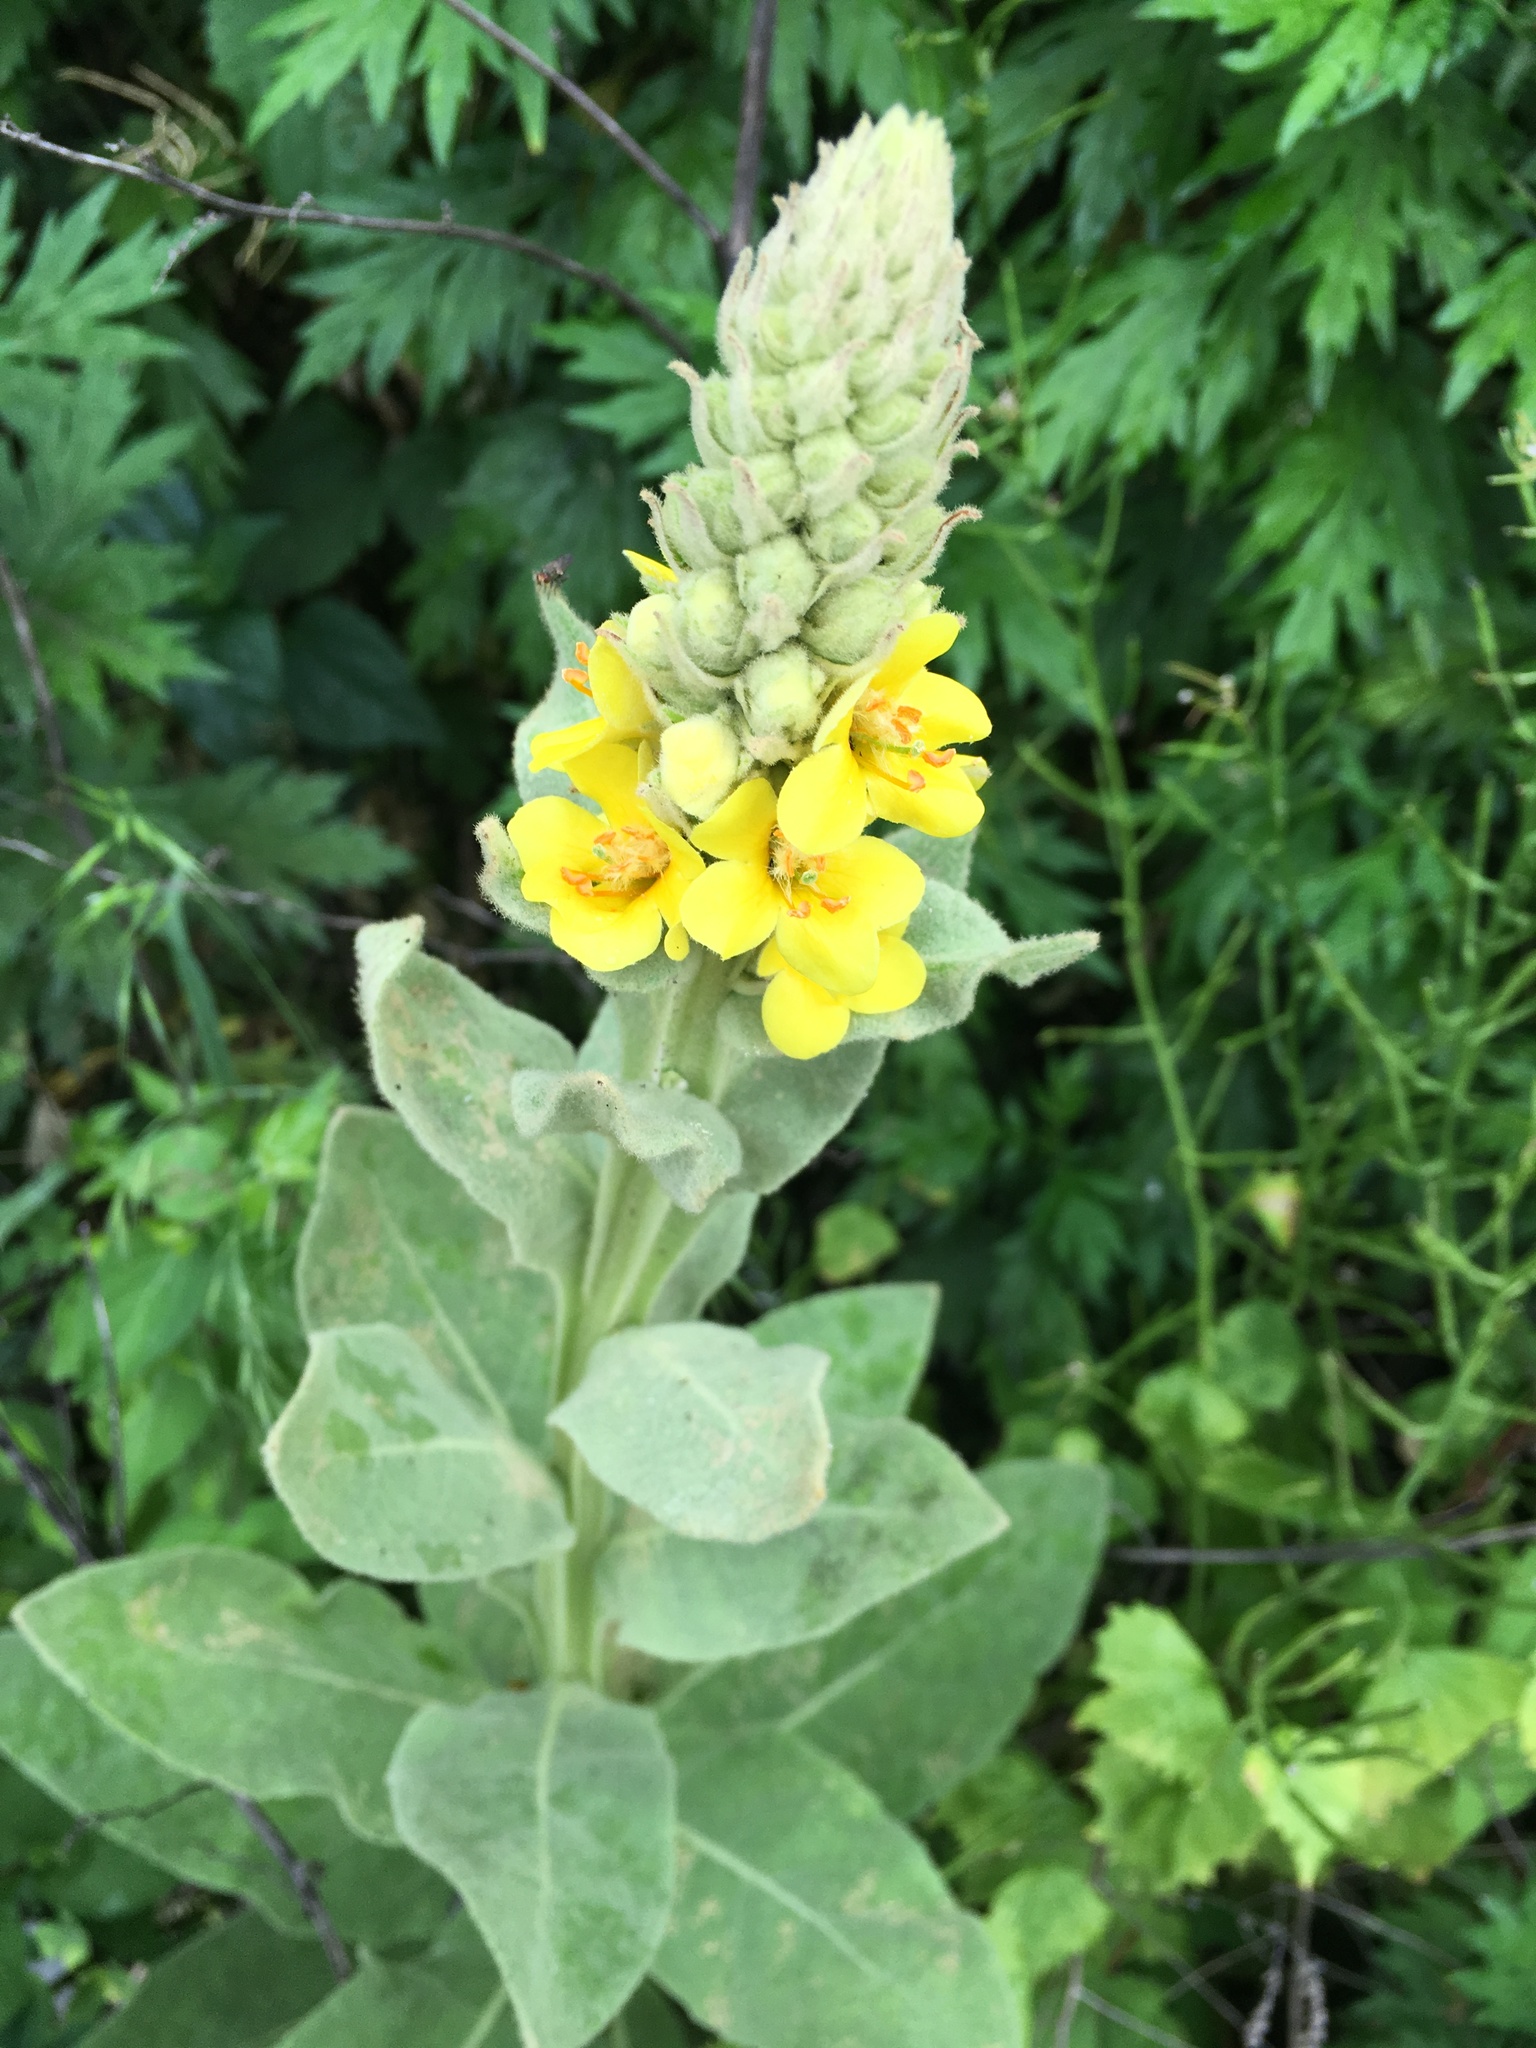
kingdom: Plantae
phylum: Tracheophyta
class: Magnoliopsida
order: Lamiales
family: Scrophulariaceae
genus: Verbascum
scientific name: Verbascum thapsus
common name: Common mullein
